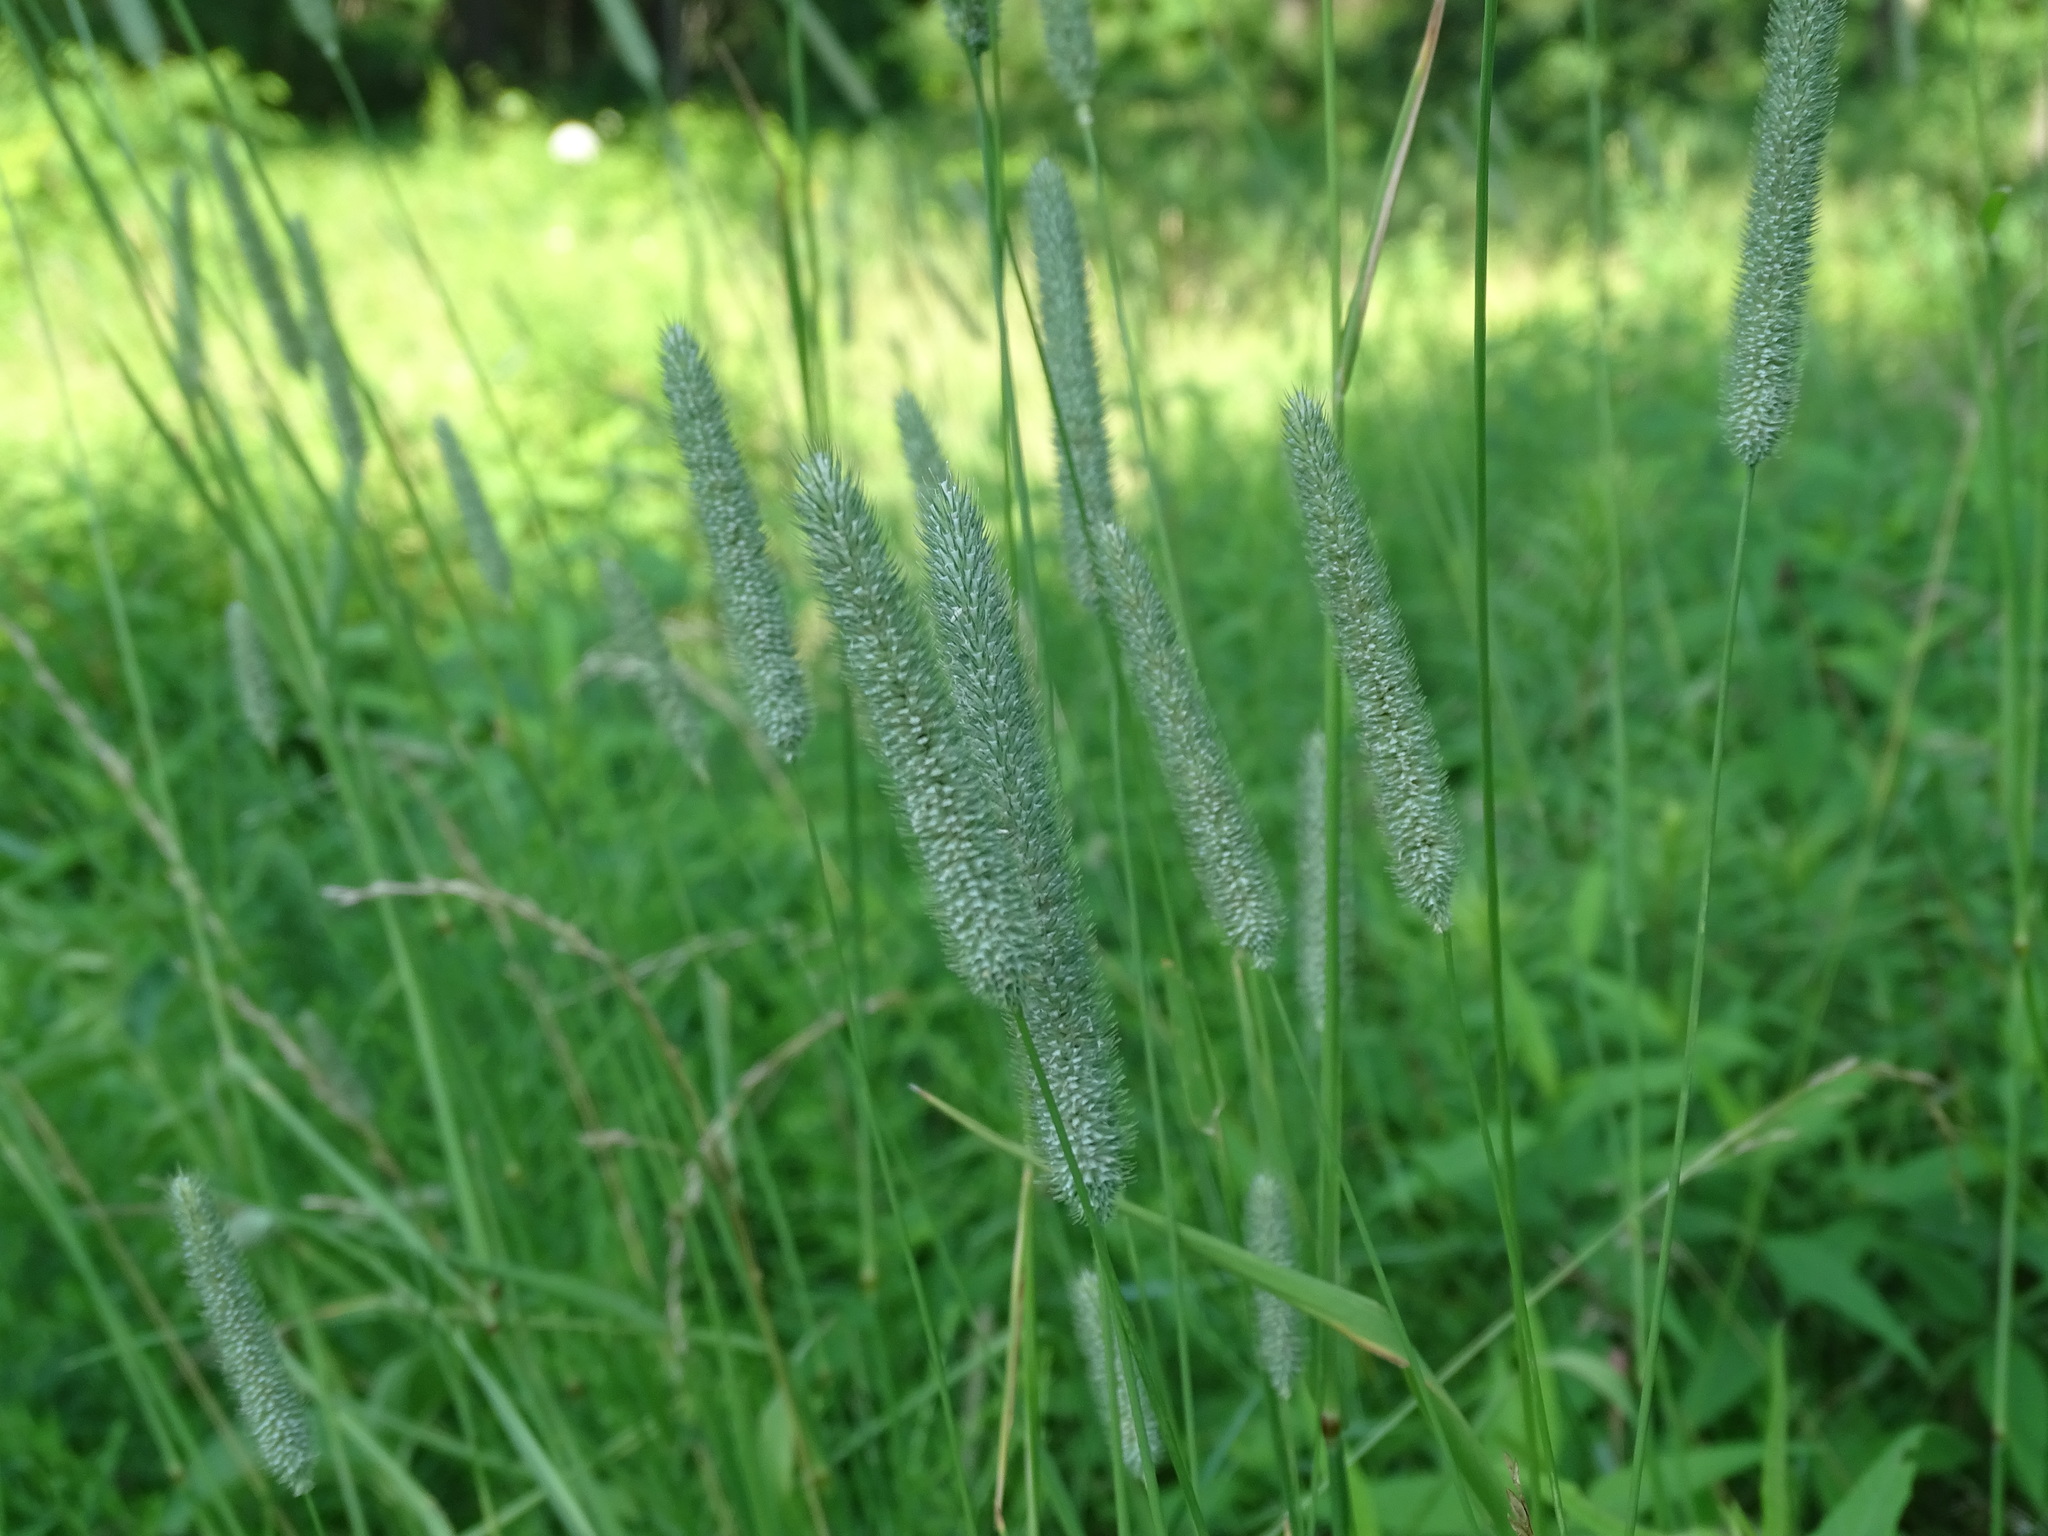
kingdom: Plantae
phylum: Tracheophyta
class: Liliopsida
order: Poales
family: Poaceae
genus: Phleum
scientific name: Phleum pratense
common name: Timothy grass
